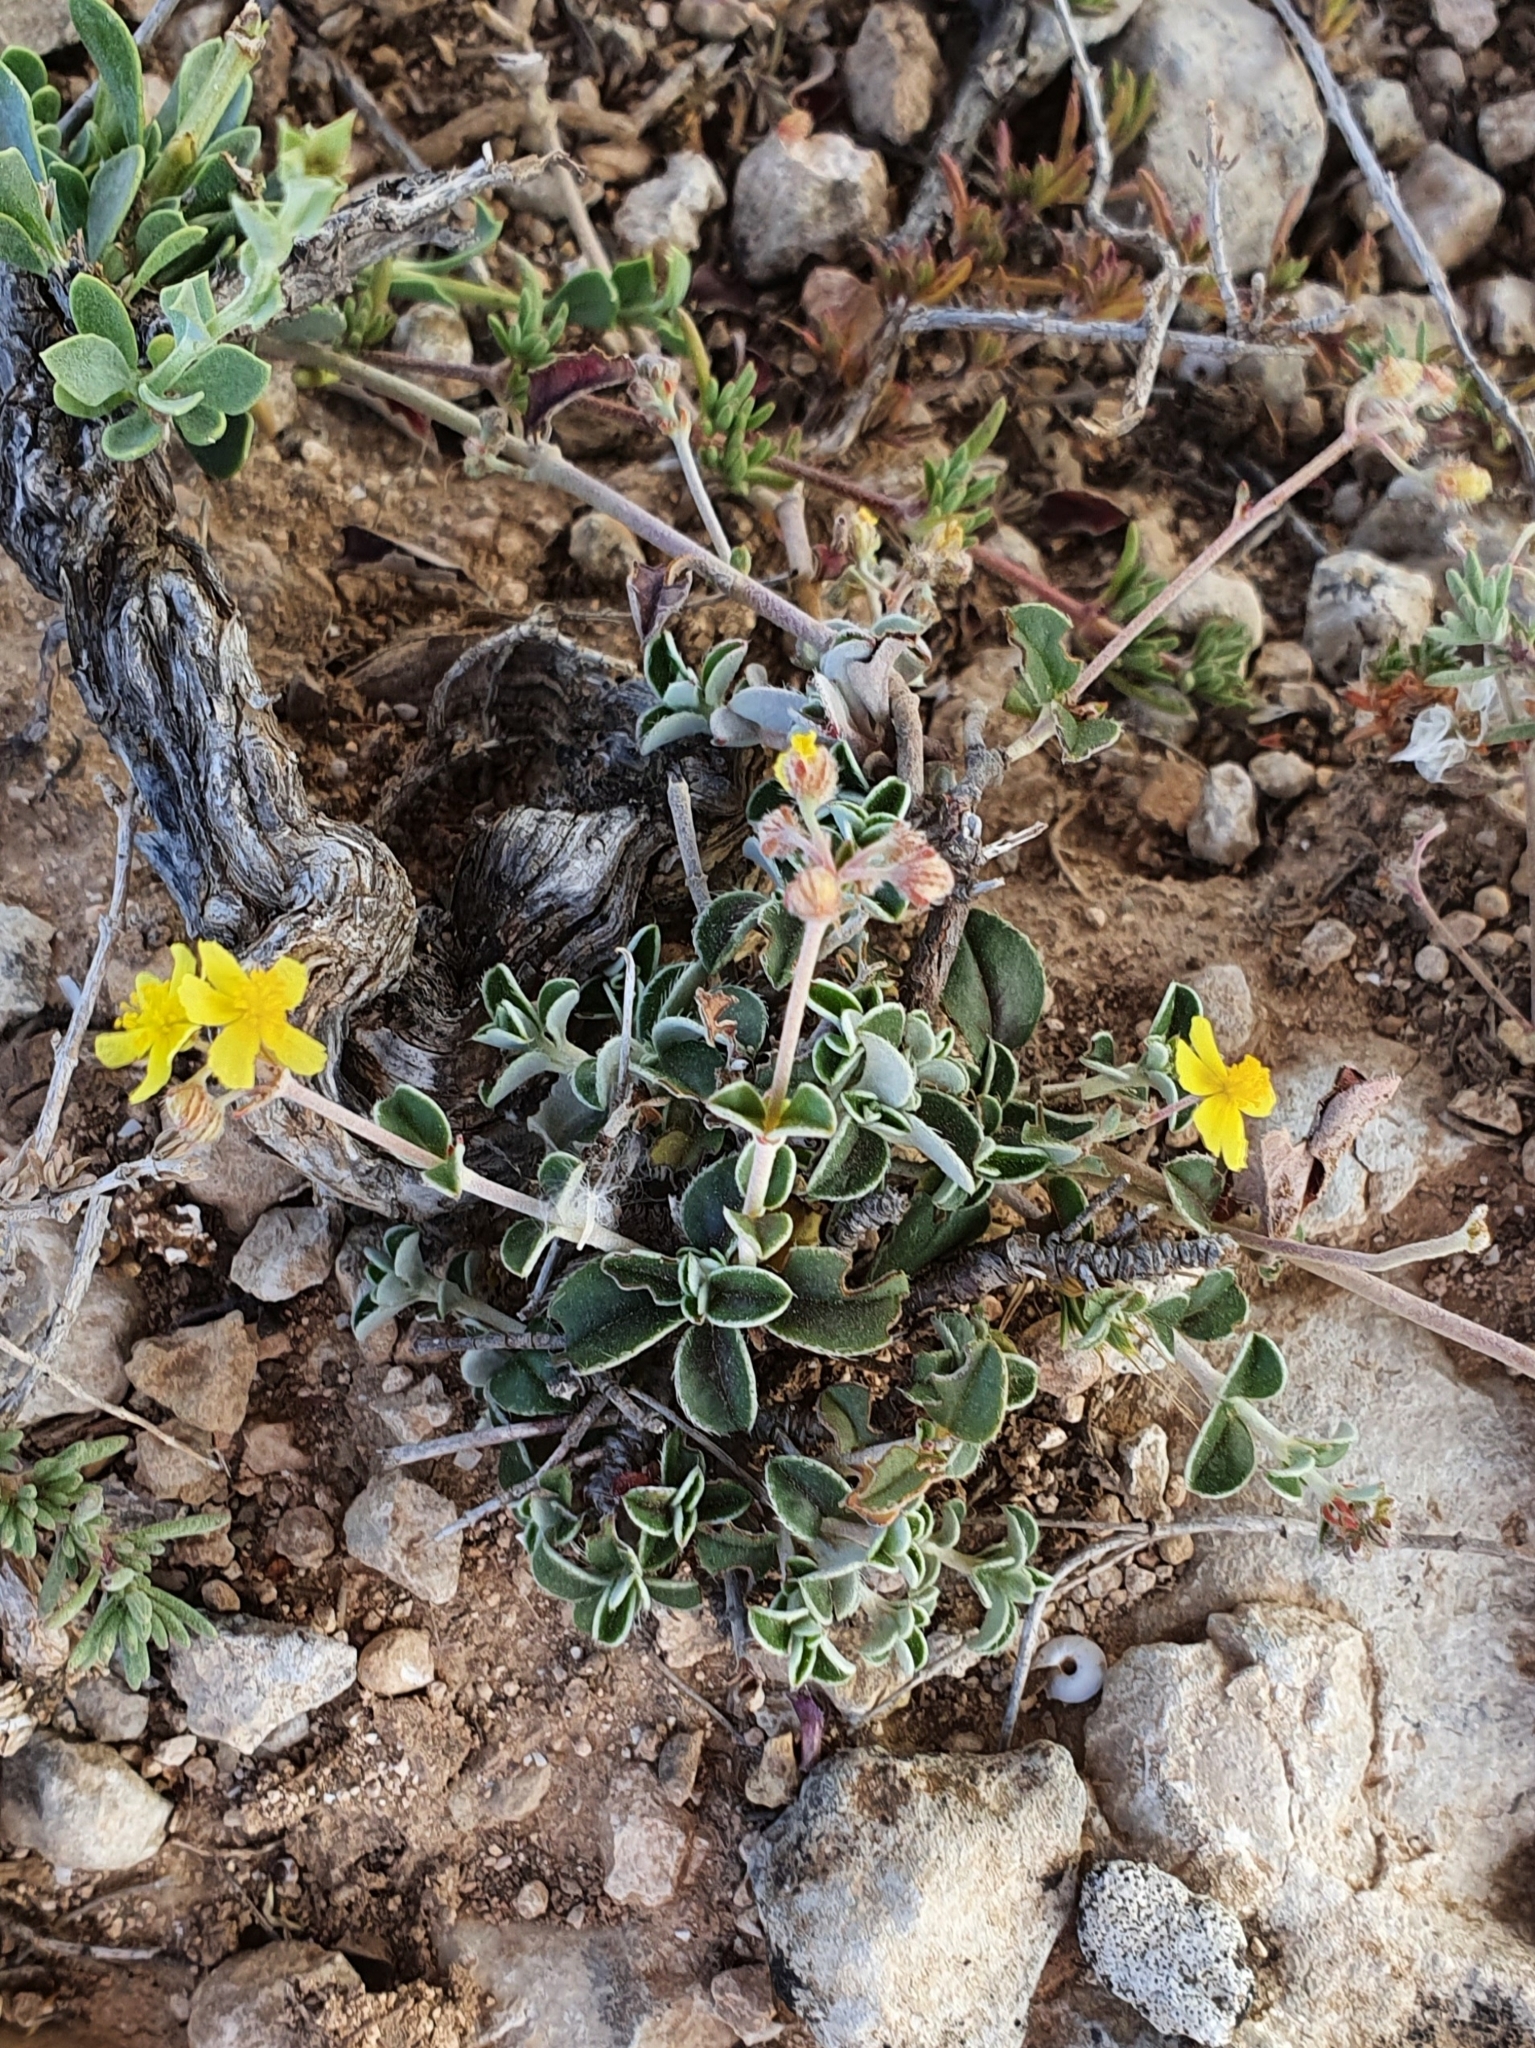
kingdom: Plantae
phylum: Tracheophyta
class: Magnoliopsida
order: Malvales
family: Cistaceae
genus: Helianthemum
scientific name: Helianthemum cinereum
